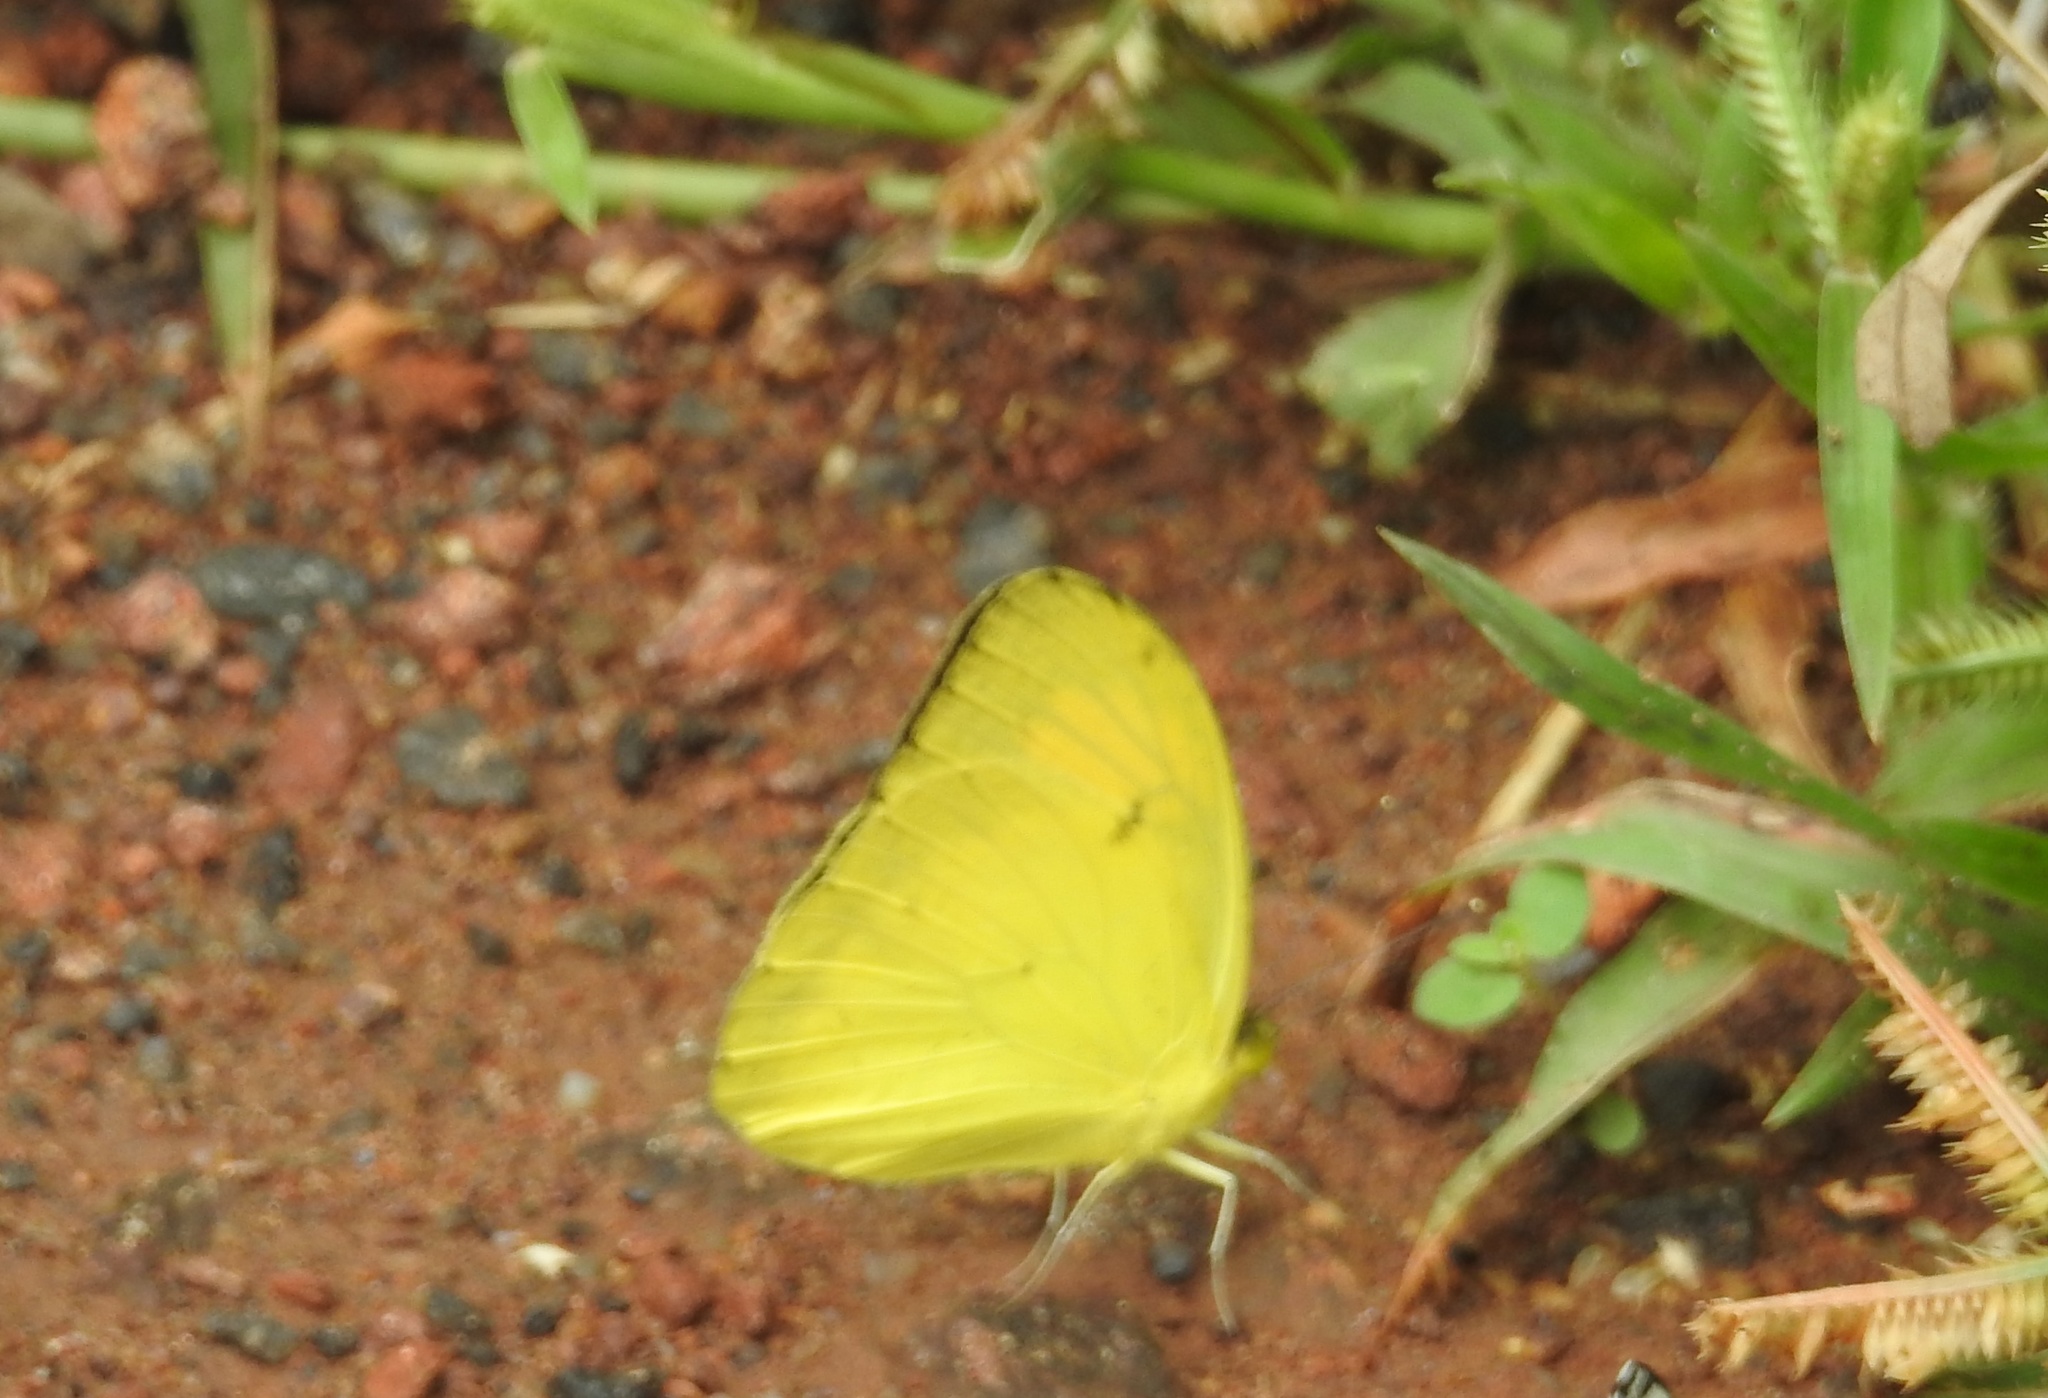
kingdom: Animalia
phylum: Arthropoda
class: Insecta
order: Lepidoptera
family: Pieridae
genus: Ixias
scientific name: Ixias pyrene
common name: Yellow orange tip
